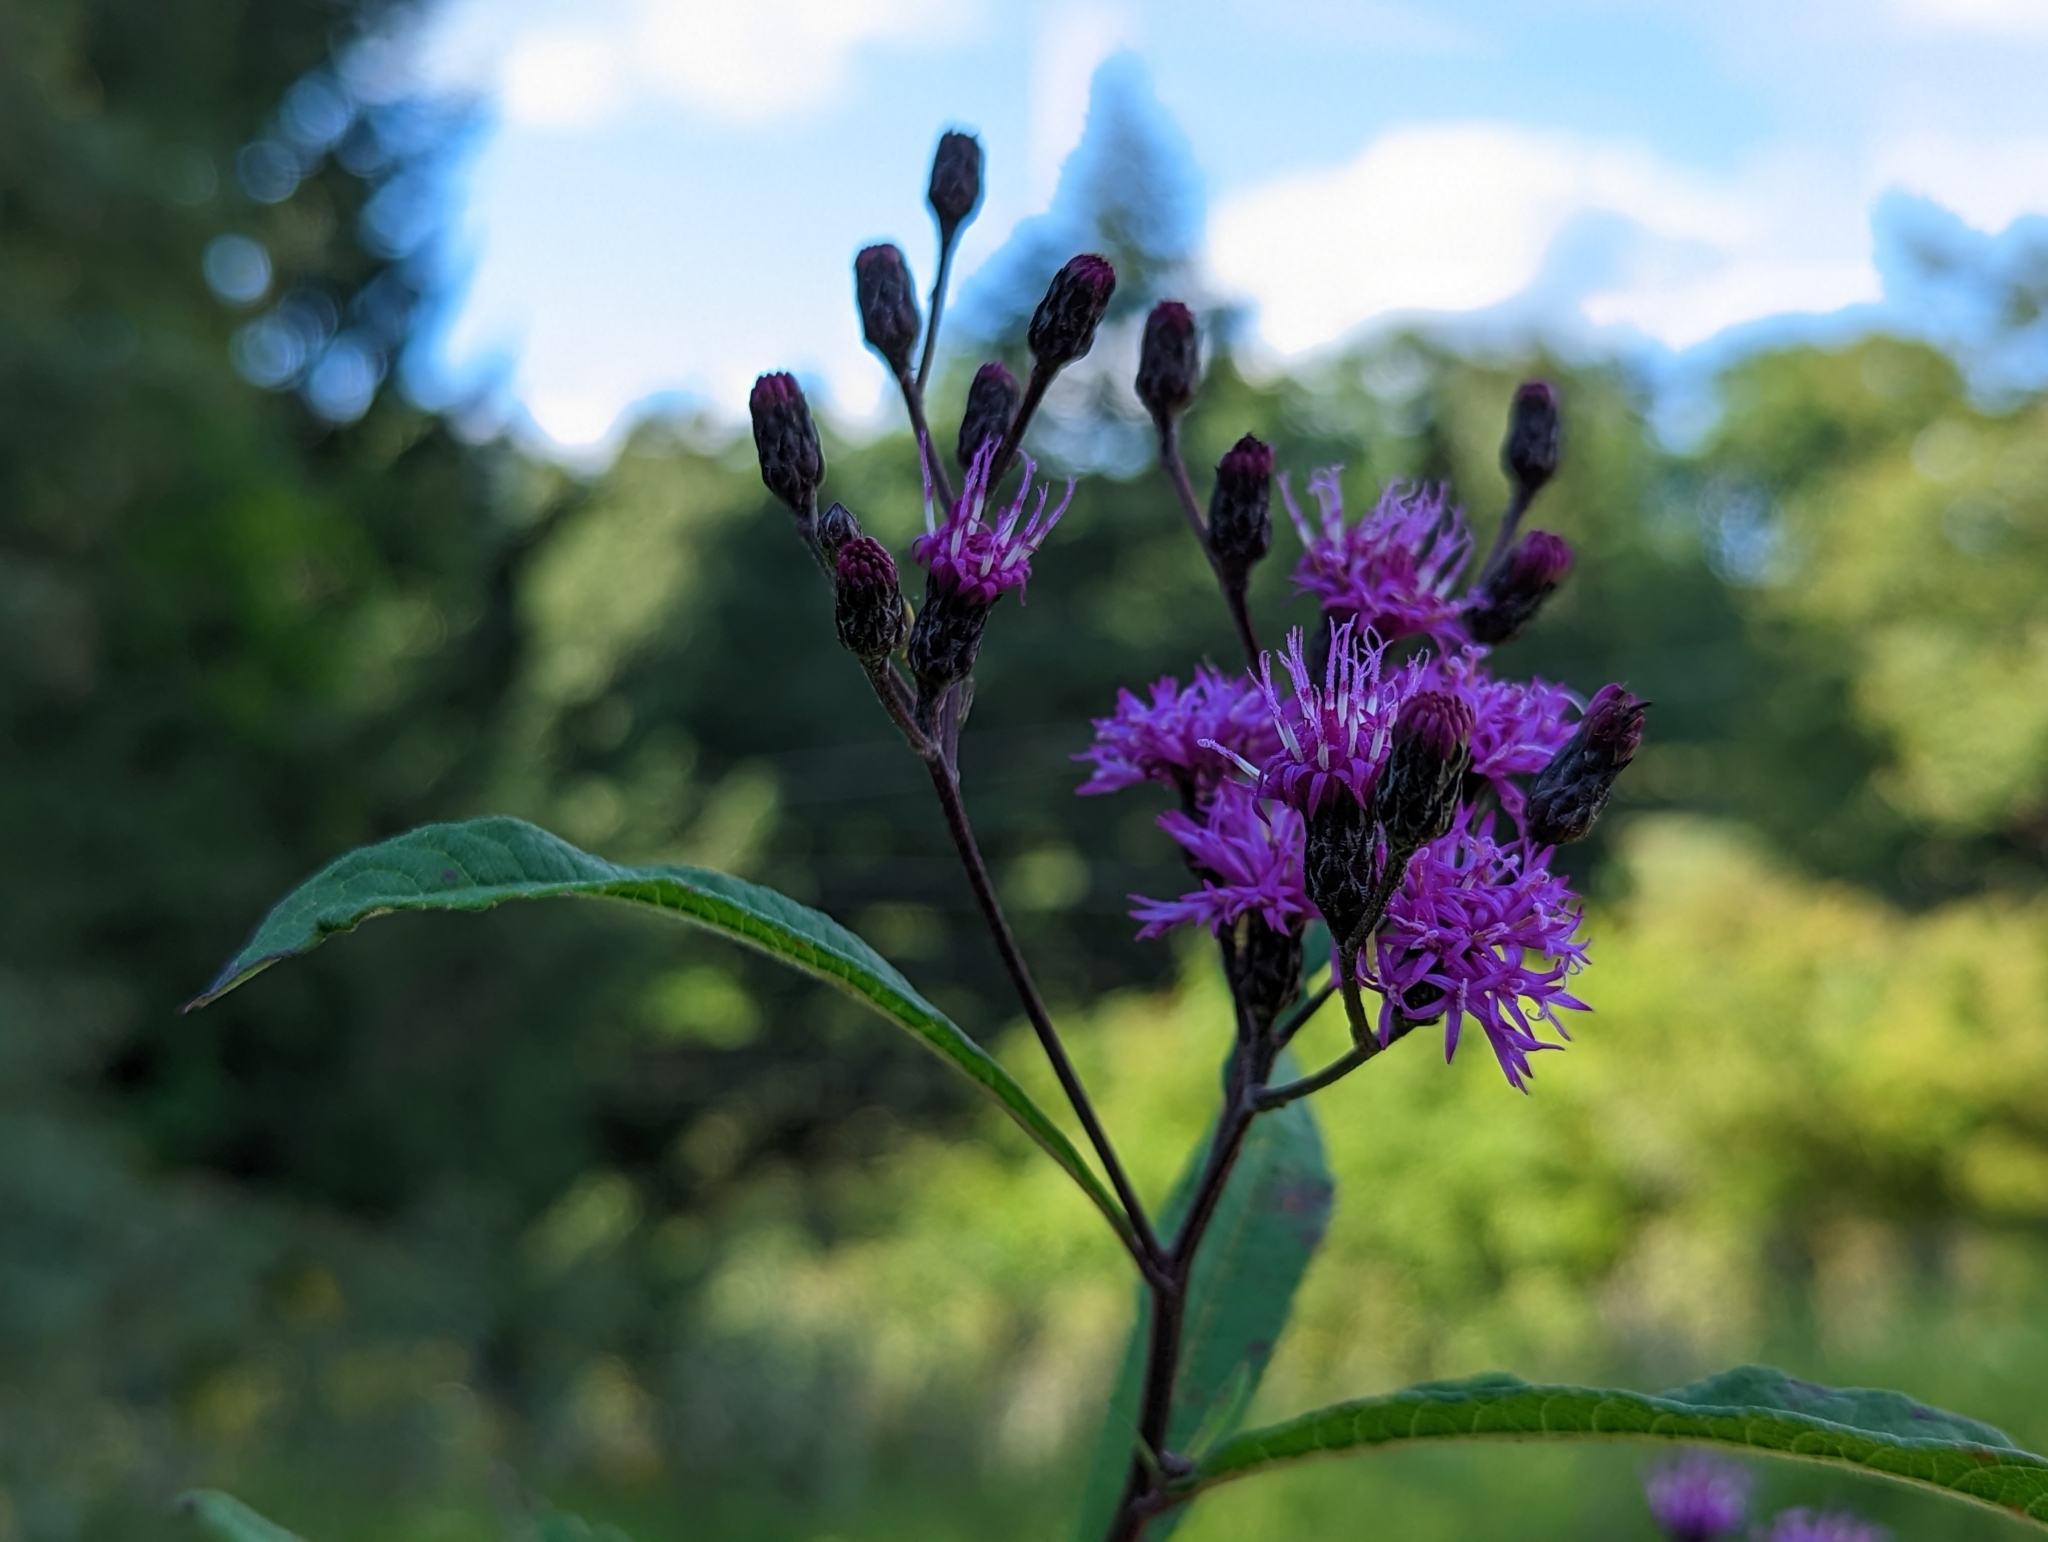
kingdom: Plantae
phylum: Tracheophyta
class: Magnoliopsida
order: Asterales
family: Asteraceae
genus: Vernonia
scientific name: Vernonia gigantea
